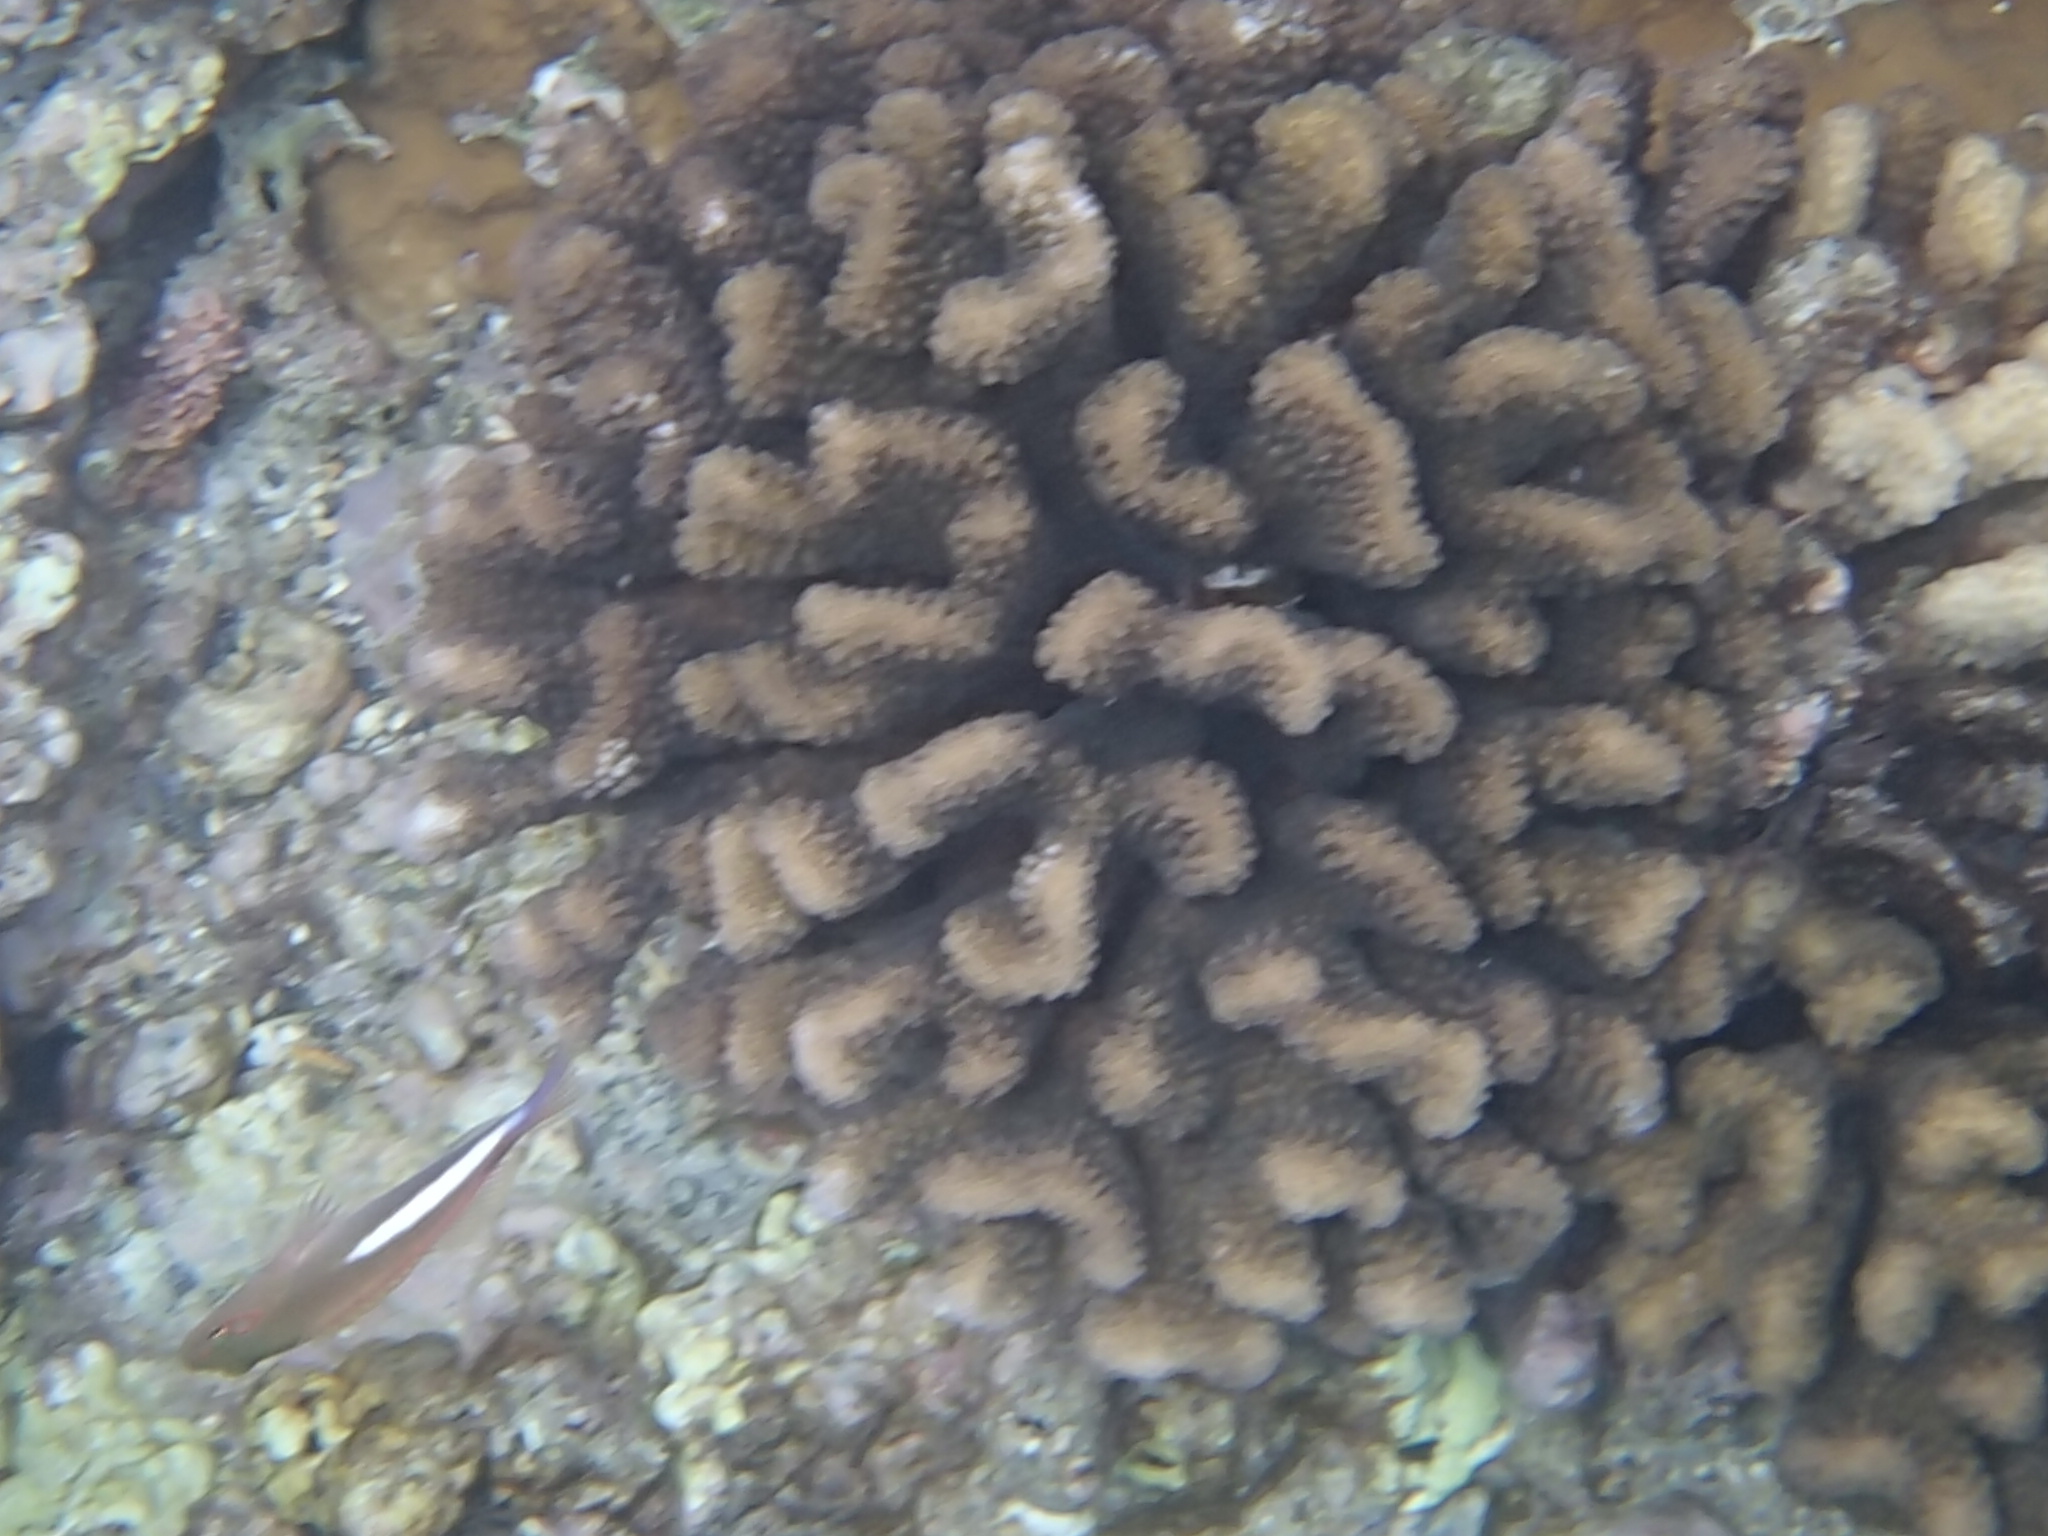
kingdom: Animalia
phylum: Chordata
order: Perciformes
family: Cirrhitidae
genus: Paracirrhites
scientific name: Paracirrhites arcatus
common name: Arc-eye hawkfish
